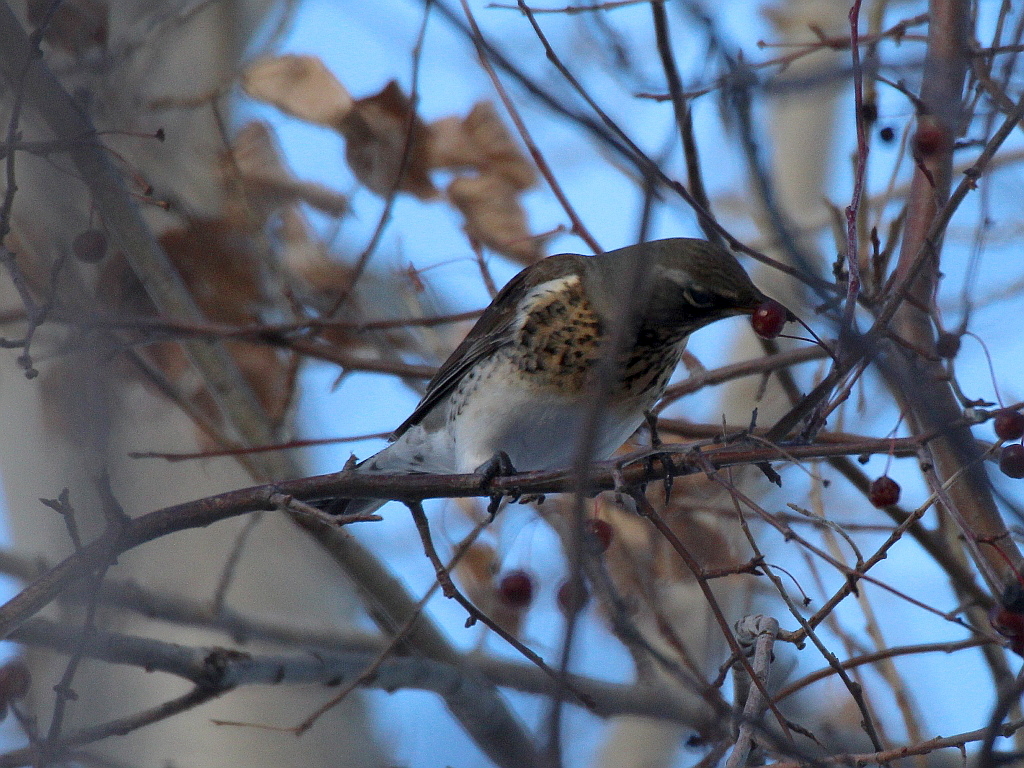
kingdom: Animalia
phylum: Chordata
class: Aves
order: Passeriformes
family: Turdidae
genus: Turdus
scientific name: Turdus pilaris
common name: Fieldfare
